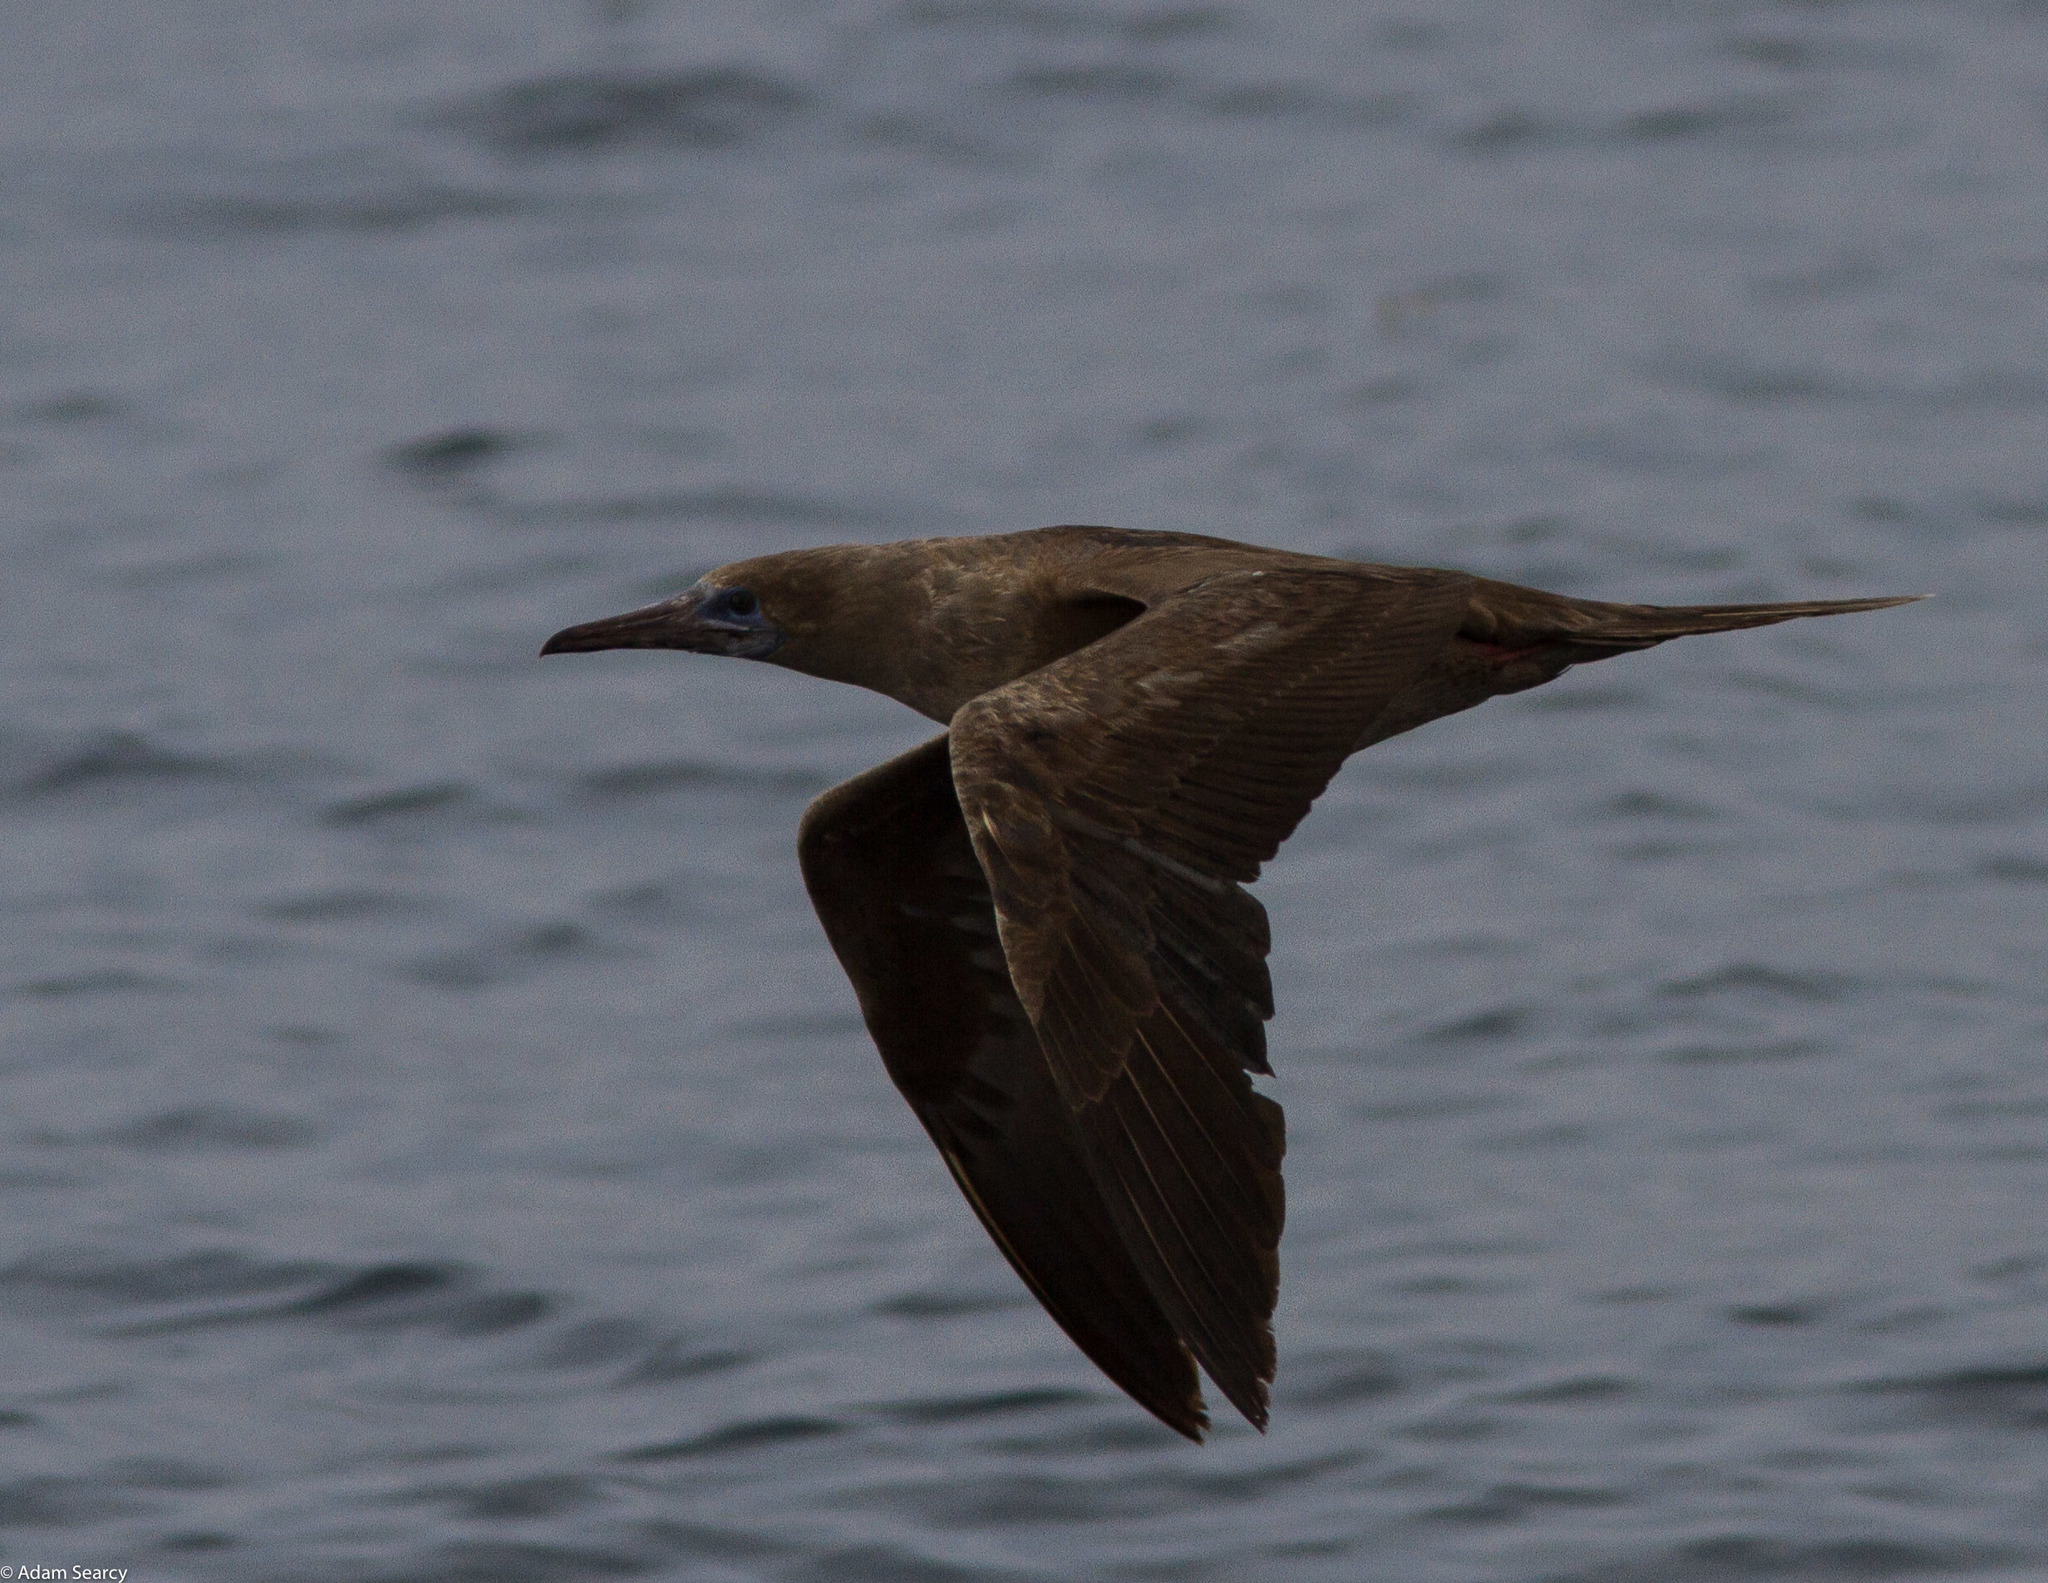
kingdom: Animalia
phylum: Chordata
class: Aves
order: Suliformes
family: Sulidae
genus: Sula
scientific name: Sula sula
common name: Red-footed booby
